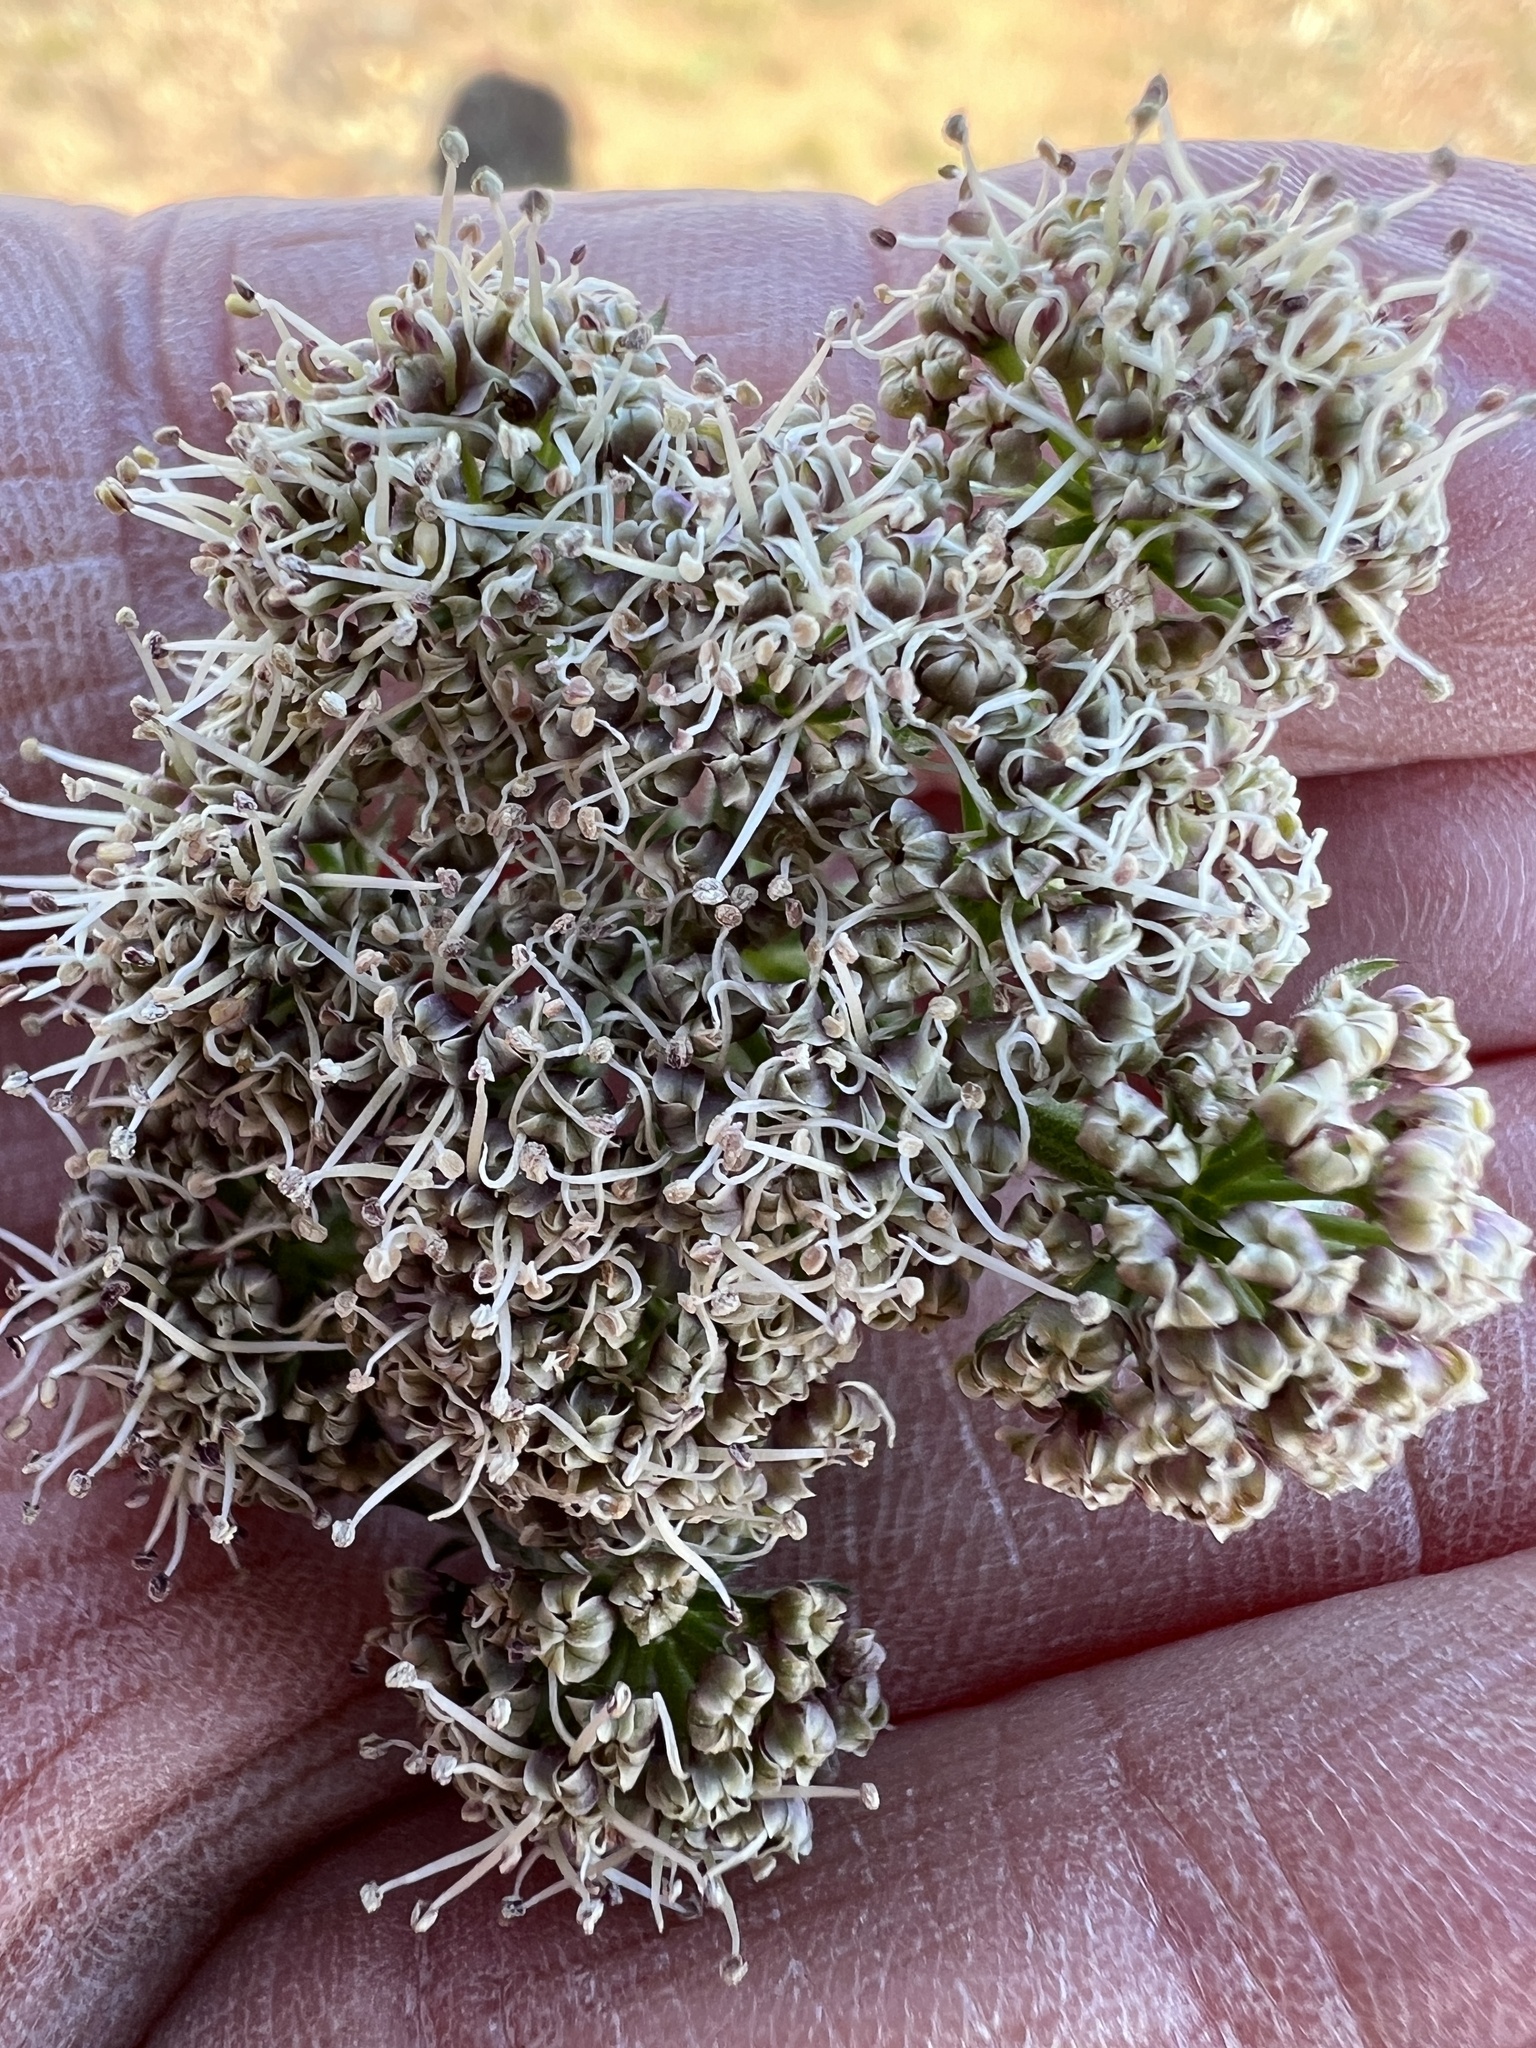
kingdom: Plantae
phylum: Tracheophyta
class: Magnoliopsida
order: Apiales
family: Apiaceae
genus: Lomatium
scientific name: Lomatium macrocarpum
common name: Big-seed biscuitroot
